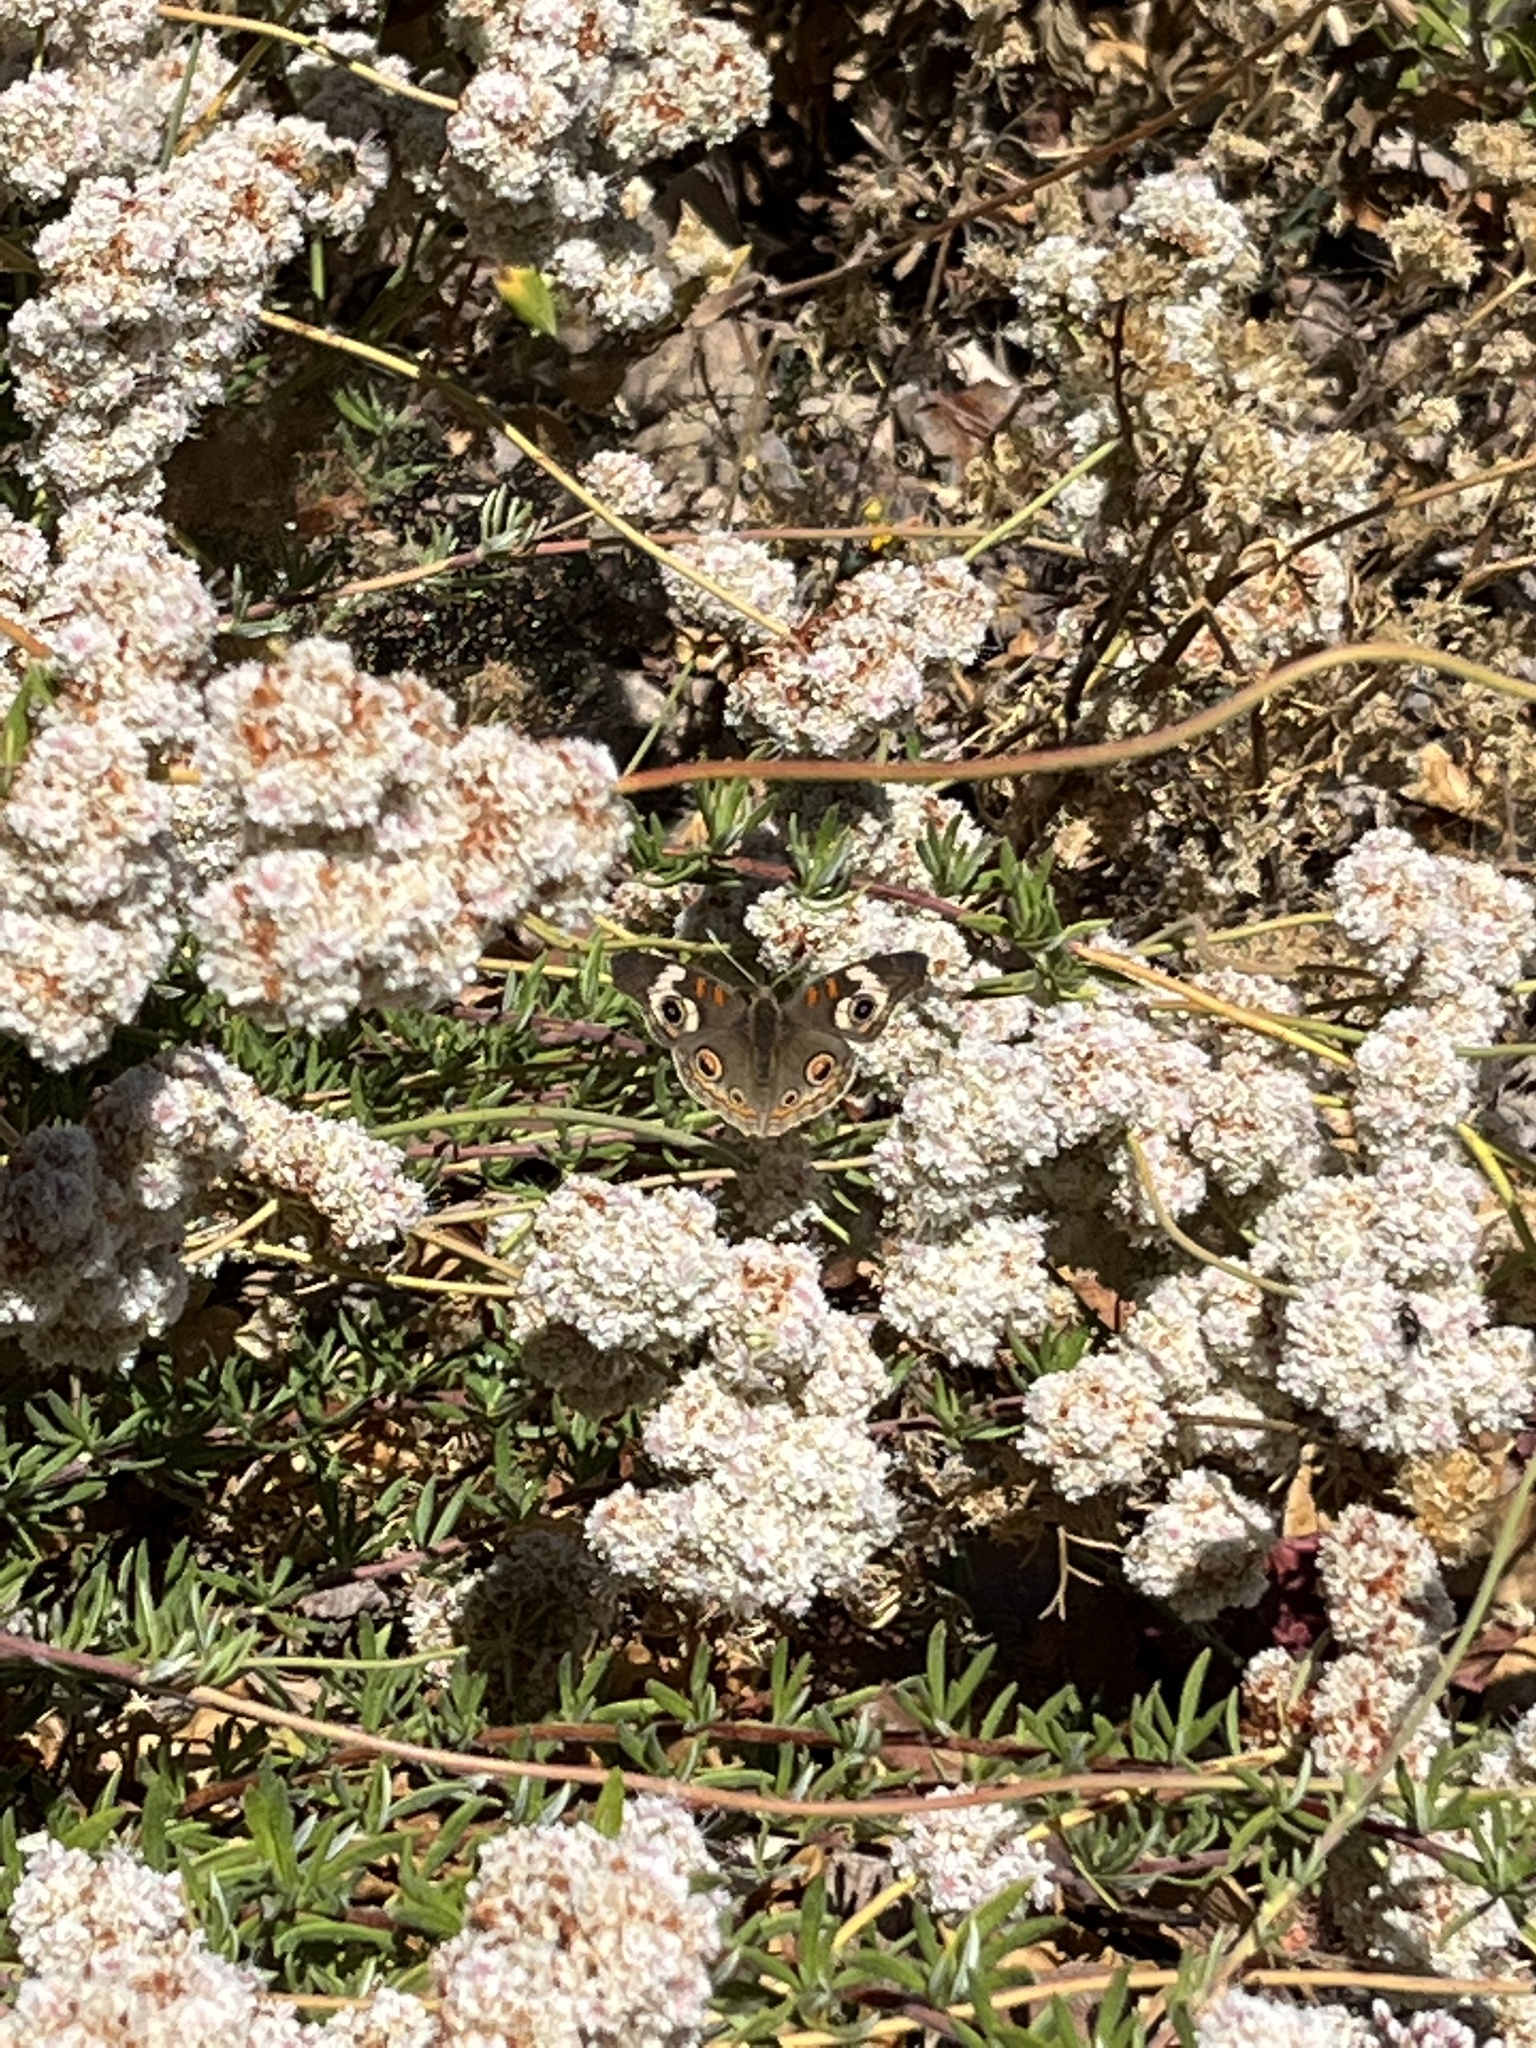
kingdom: Animalia
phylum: Arthropoda
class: Insecta
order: Lepidoptera
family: Nymphalidae
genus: Junonia
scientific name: Junonia grisea
